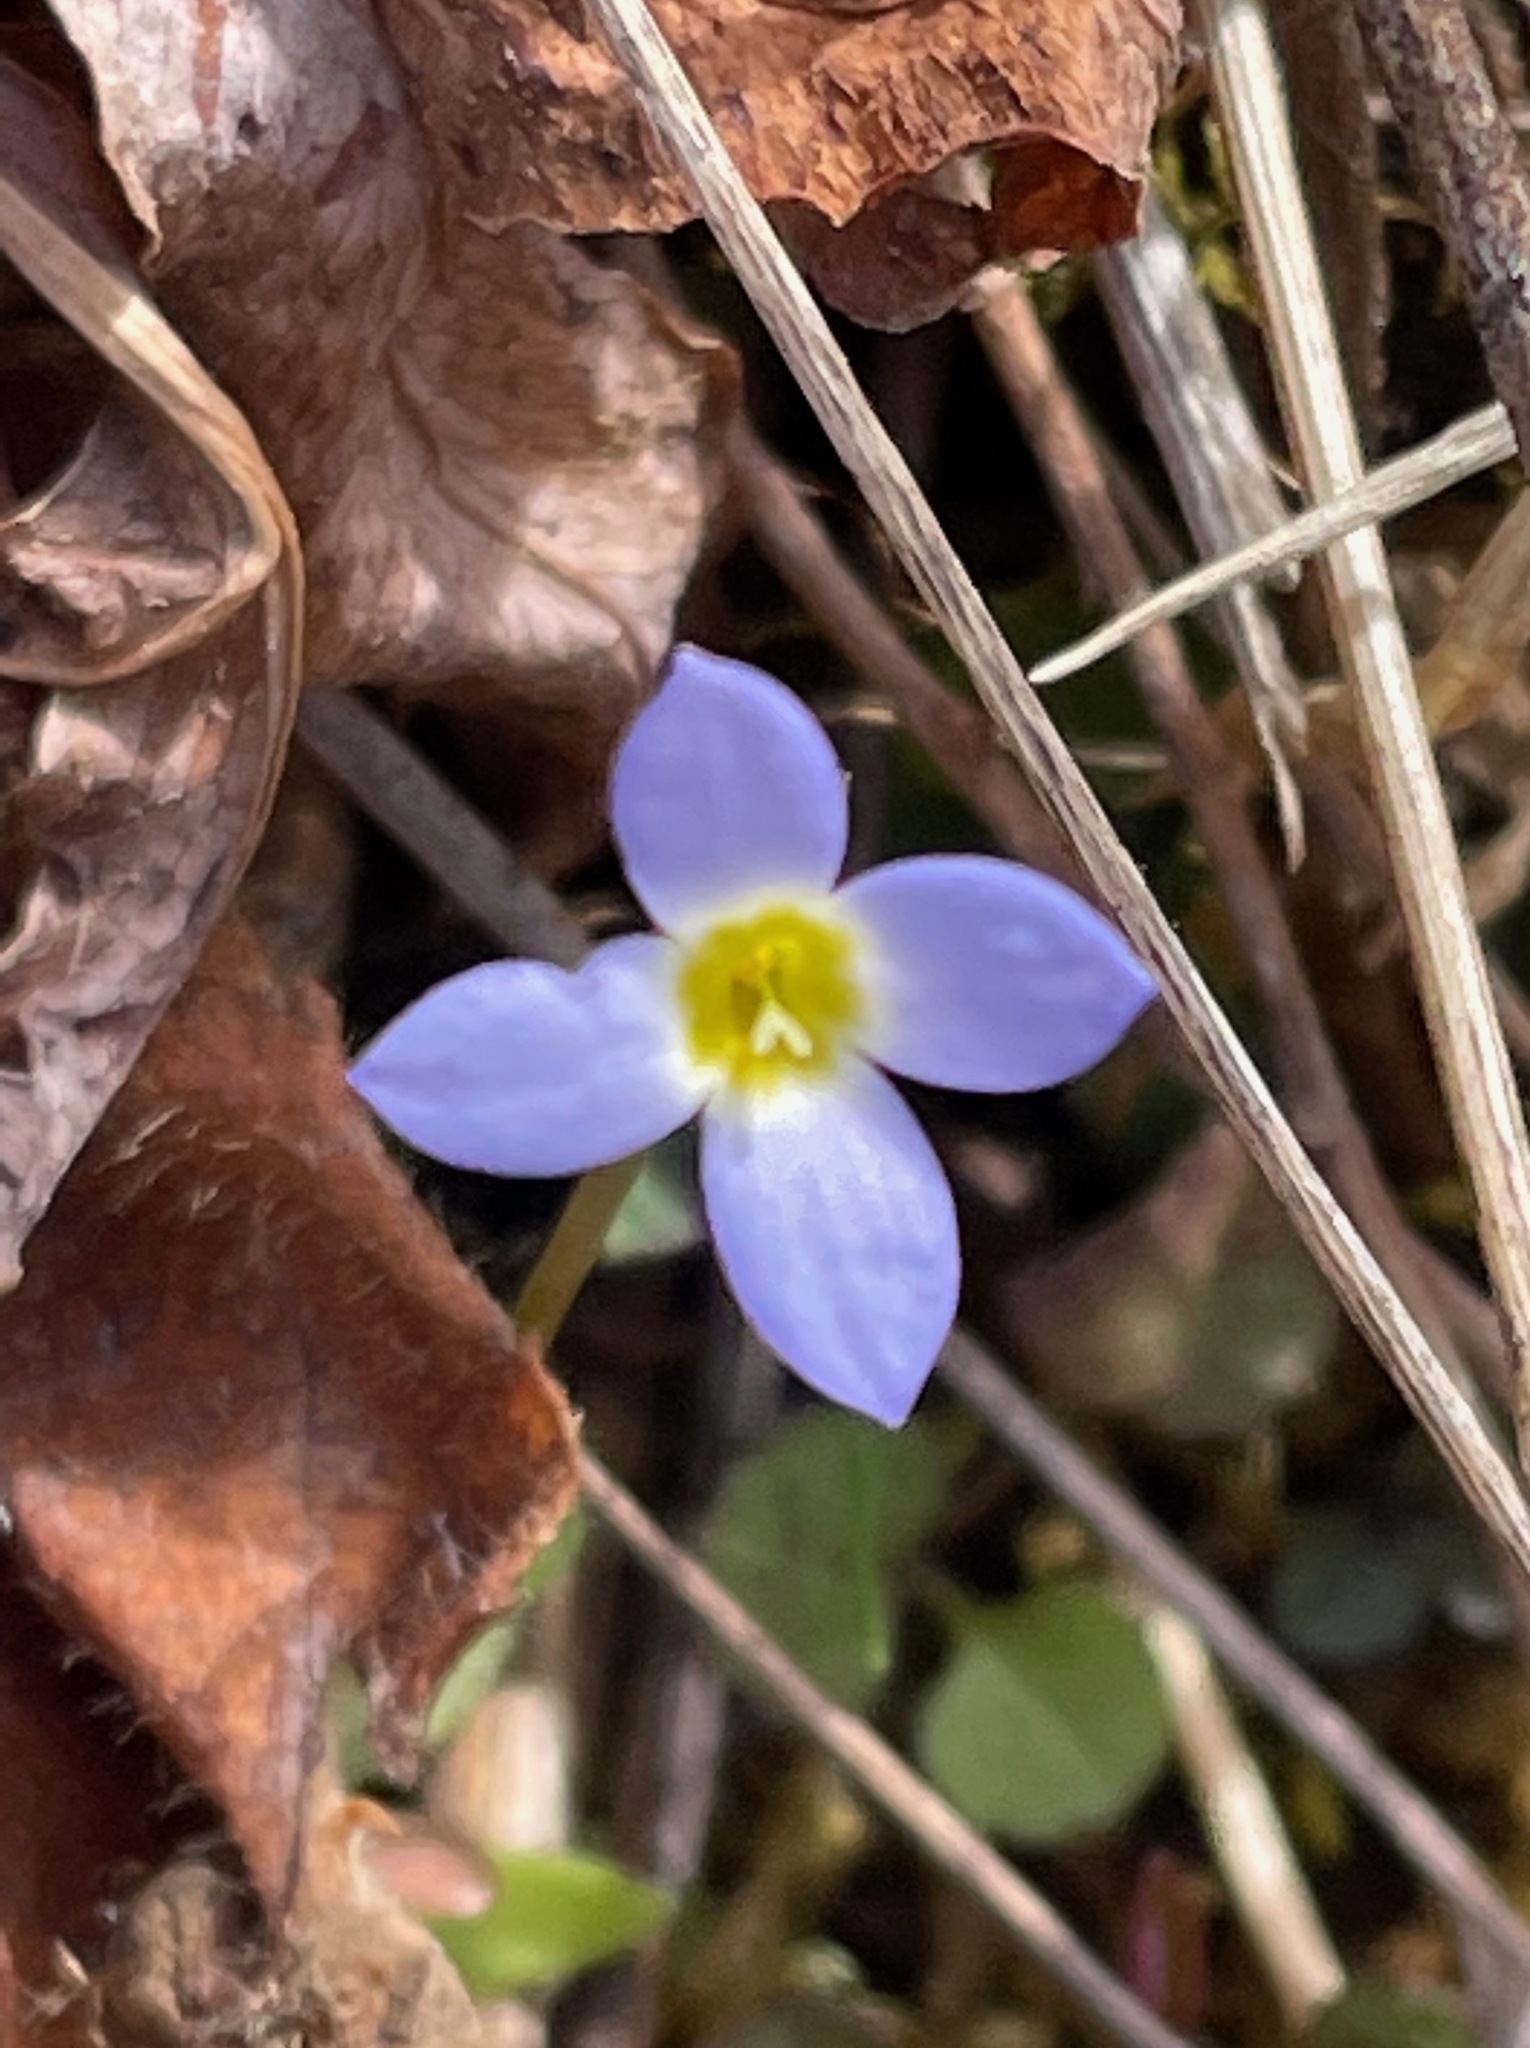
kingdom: Plantae
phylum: Tracheophyta
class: Magnoliopsida
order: Gentianales
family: Rubiaceae
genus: Houstonia
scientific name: Houstonia caerulea
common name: Bluets
